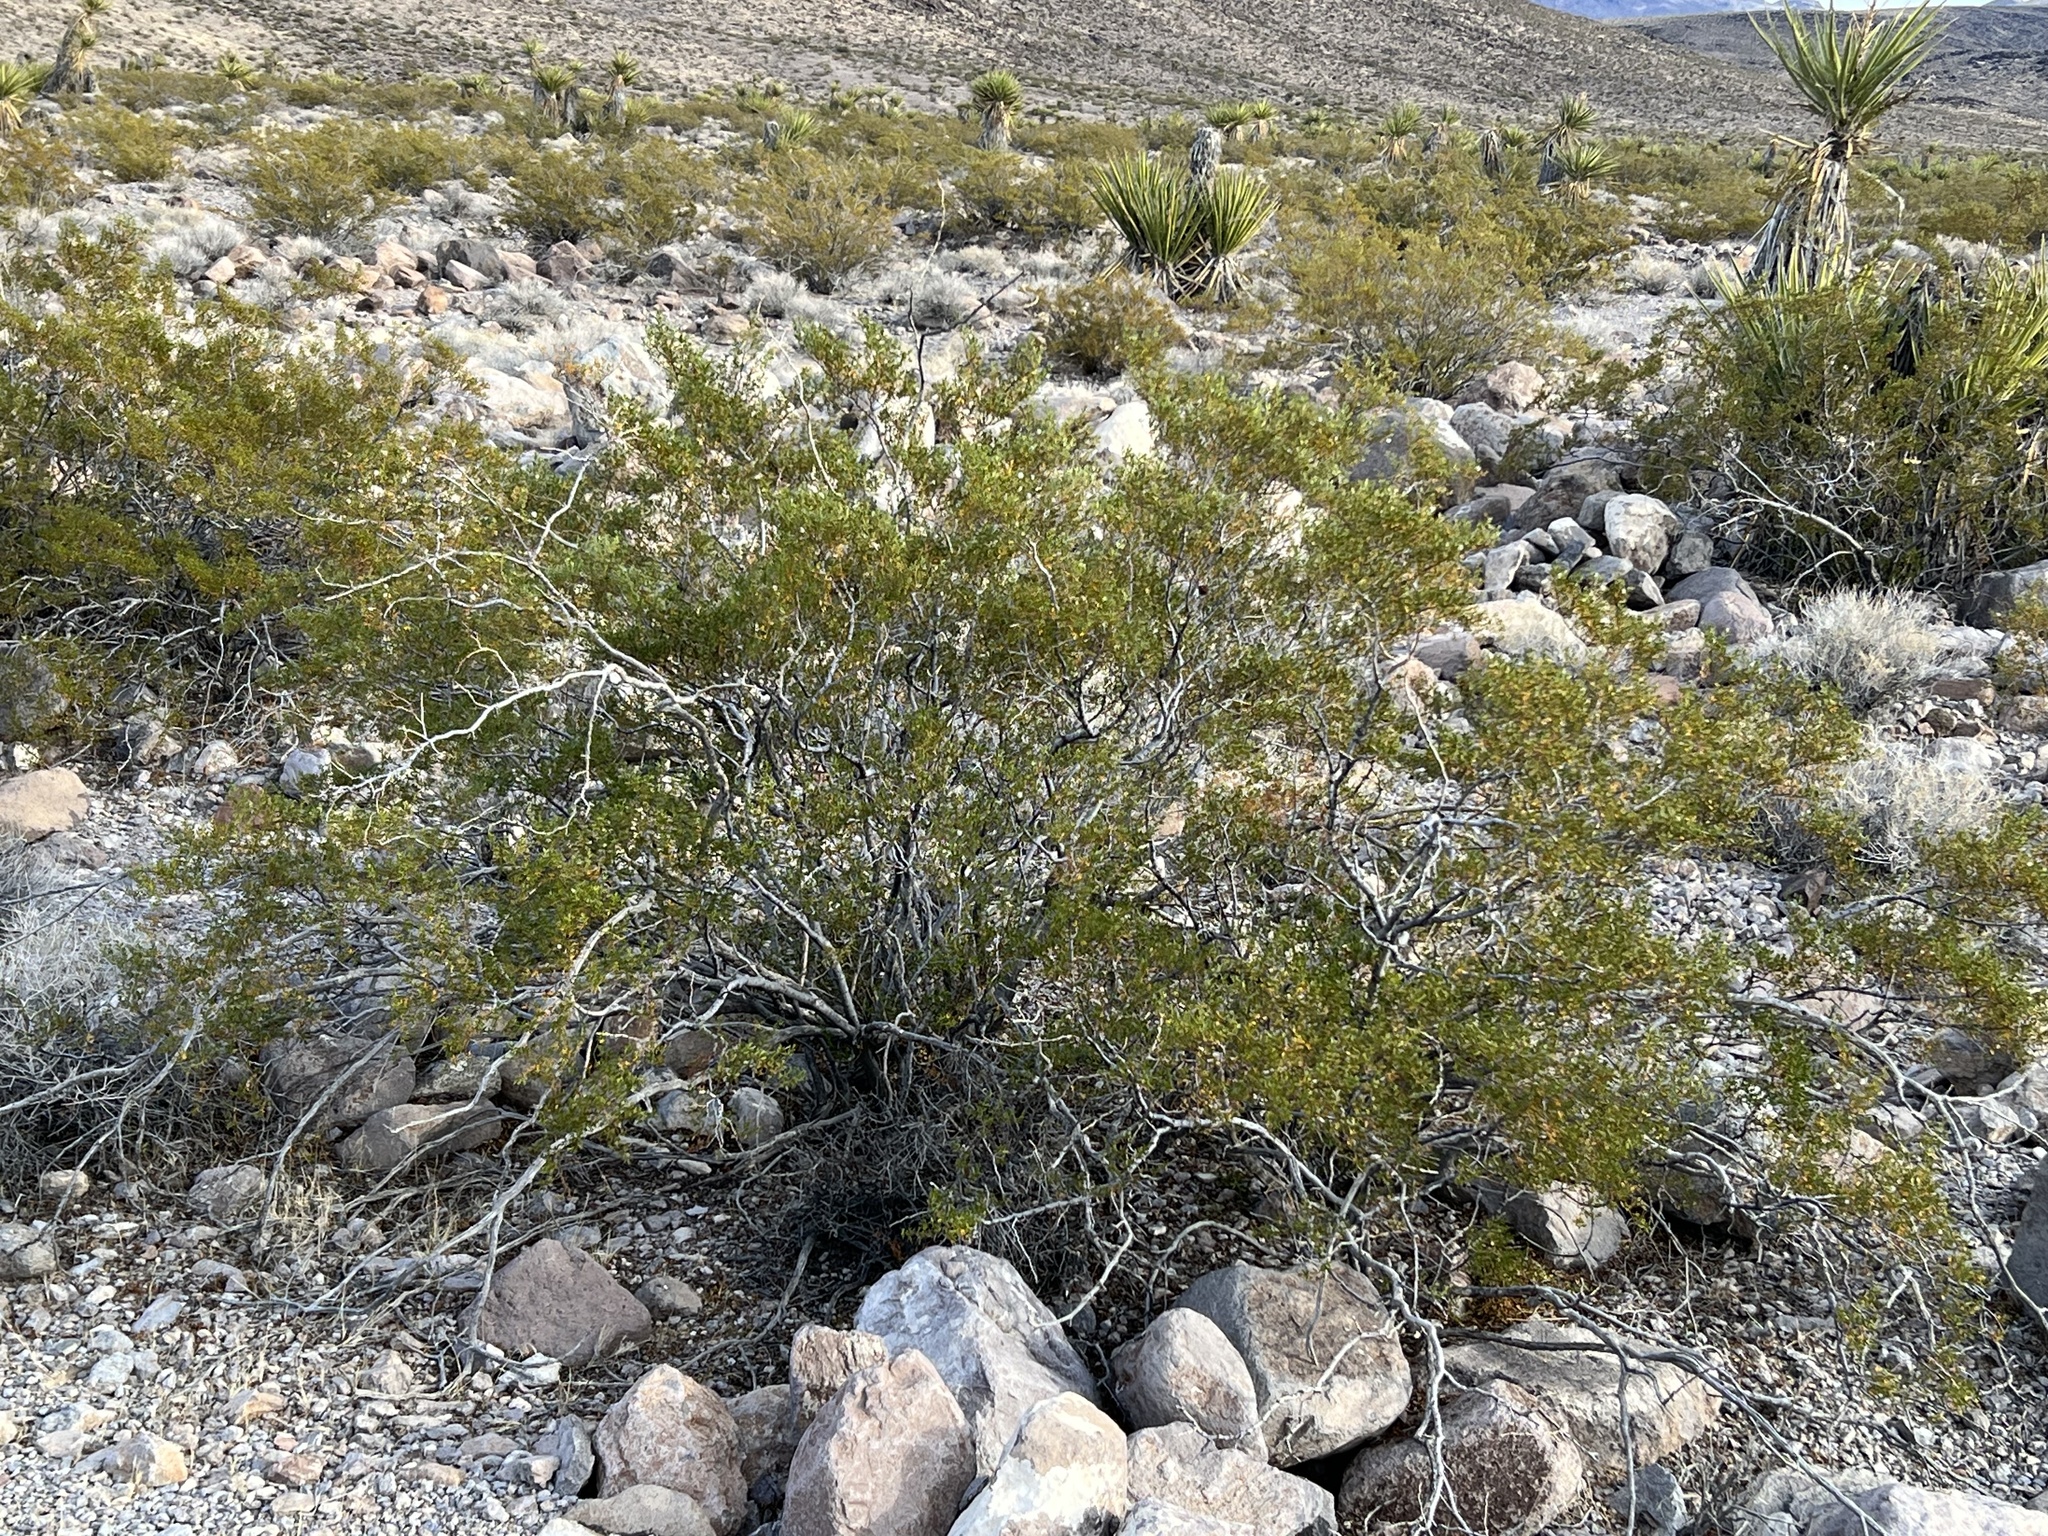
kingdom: Plantae
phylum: Tracheophyta
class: Magnoliopsida
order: Zygophyllales
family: Zygophyllaceae
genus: Larrea
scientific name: Larrea tridentata
